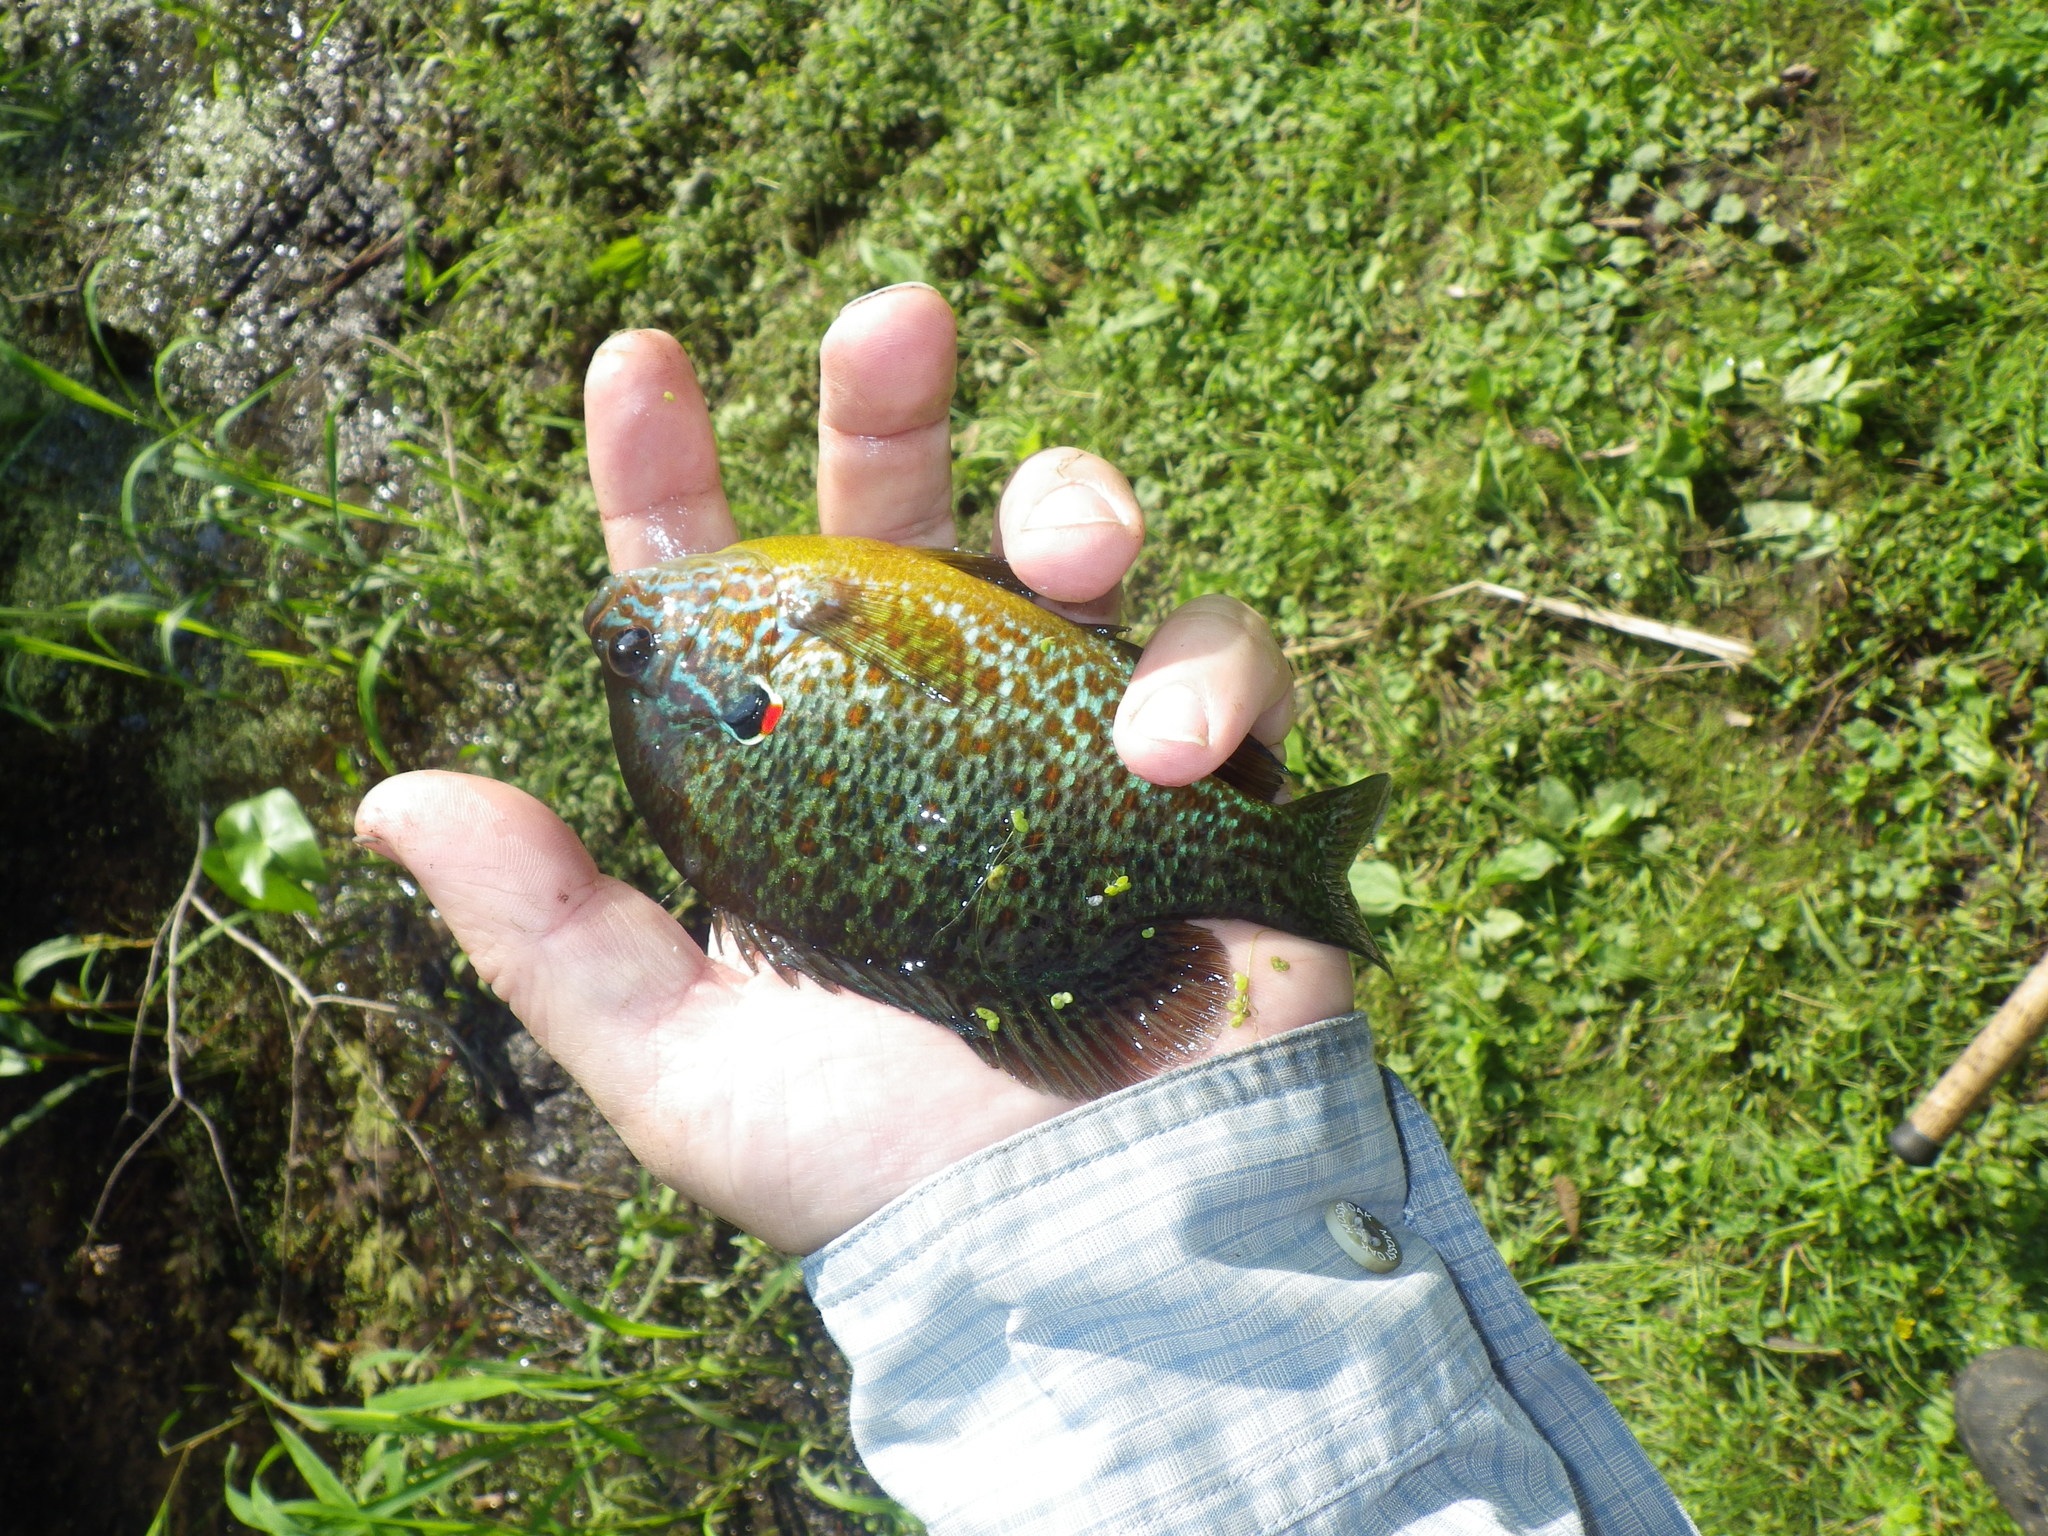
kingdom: Animalia
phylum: Chordata
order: Perciformes
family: Centrarchidae
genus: Lepomis
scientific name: Lepomis gibbosus
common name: Pumpkinseed
